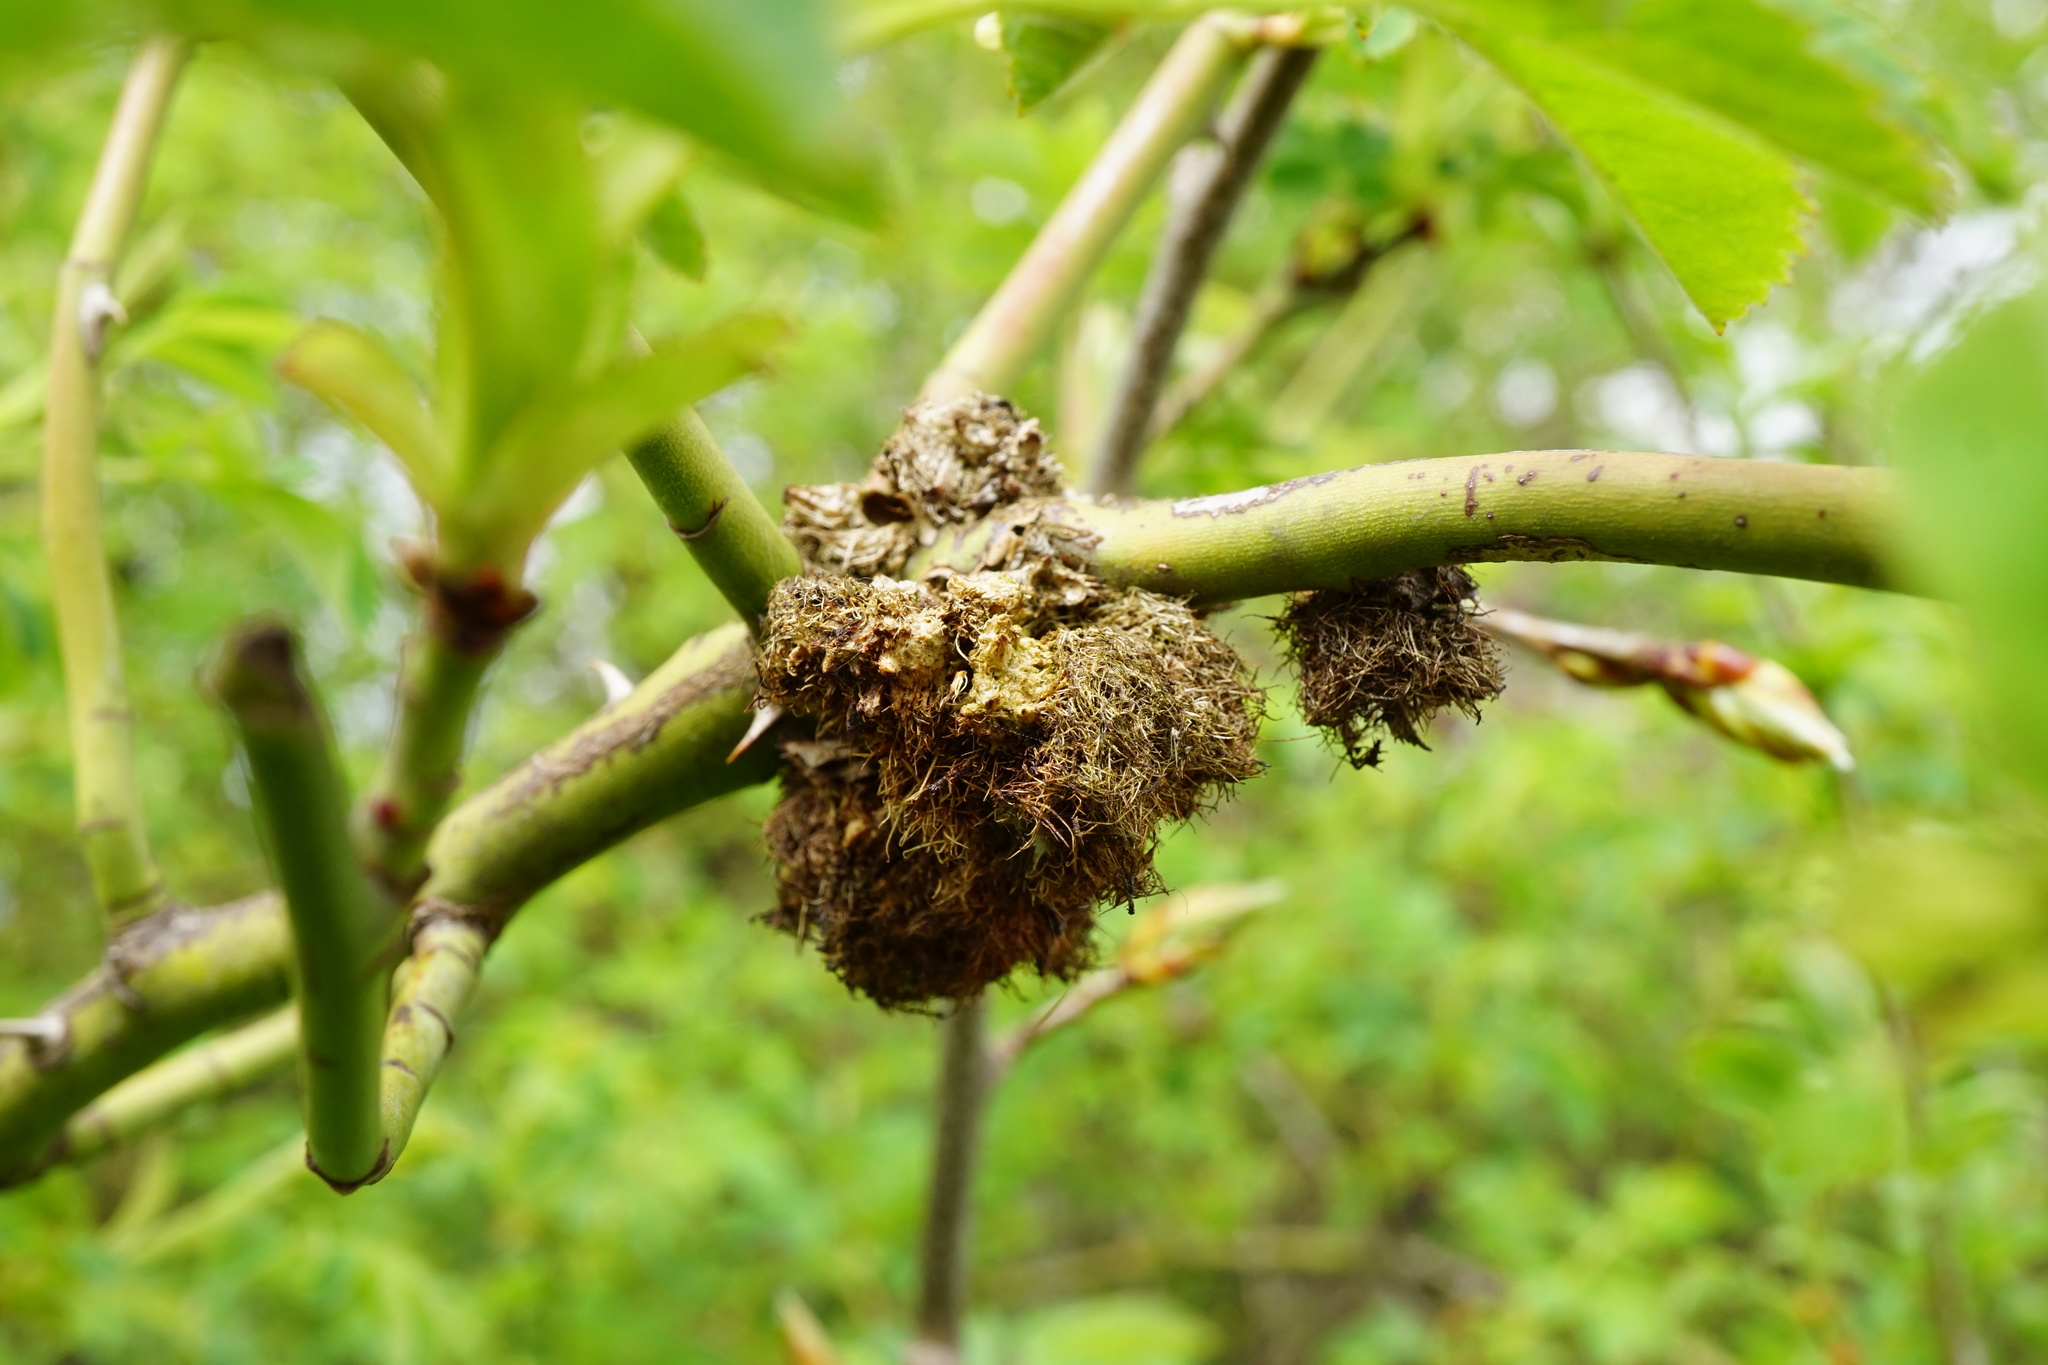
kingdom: Animalia
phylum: Arthropoda
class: Insecta
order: Hymenoptera
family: Cynipidae
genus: Diplolepis
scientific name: Diplolepis rosae
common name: Bedeguar gall
